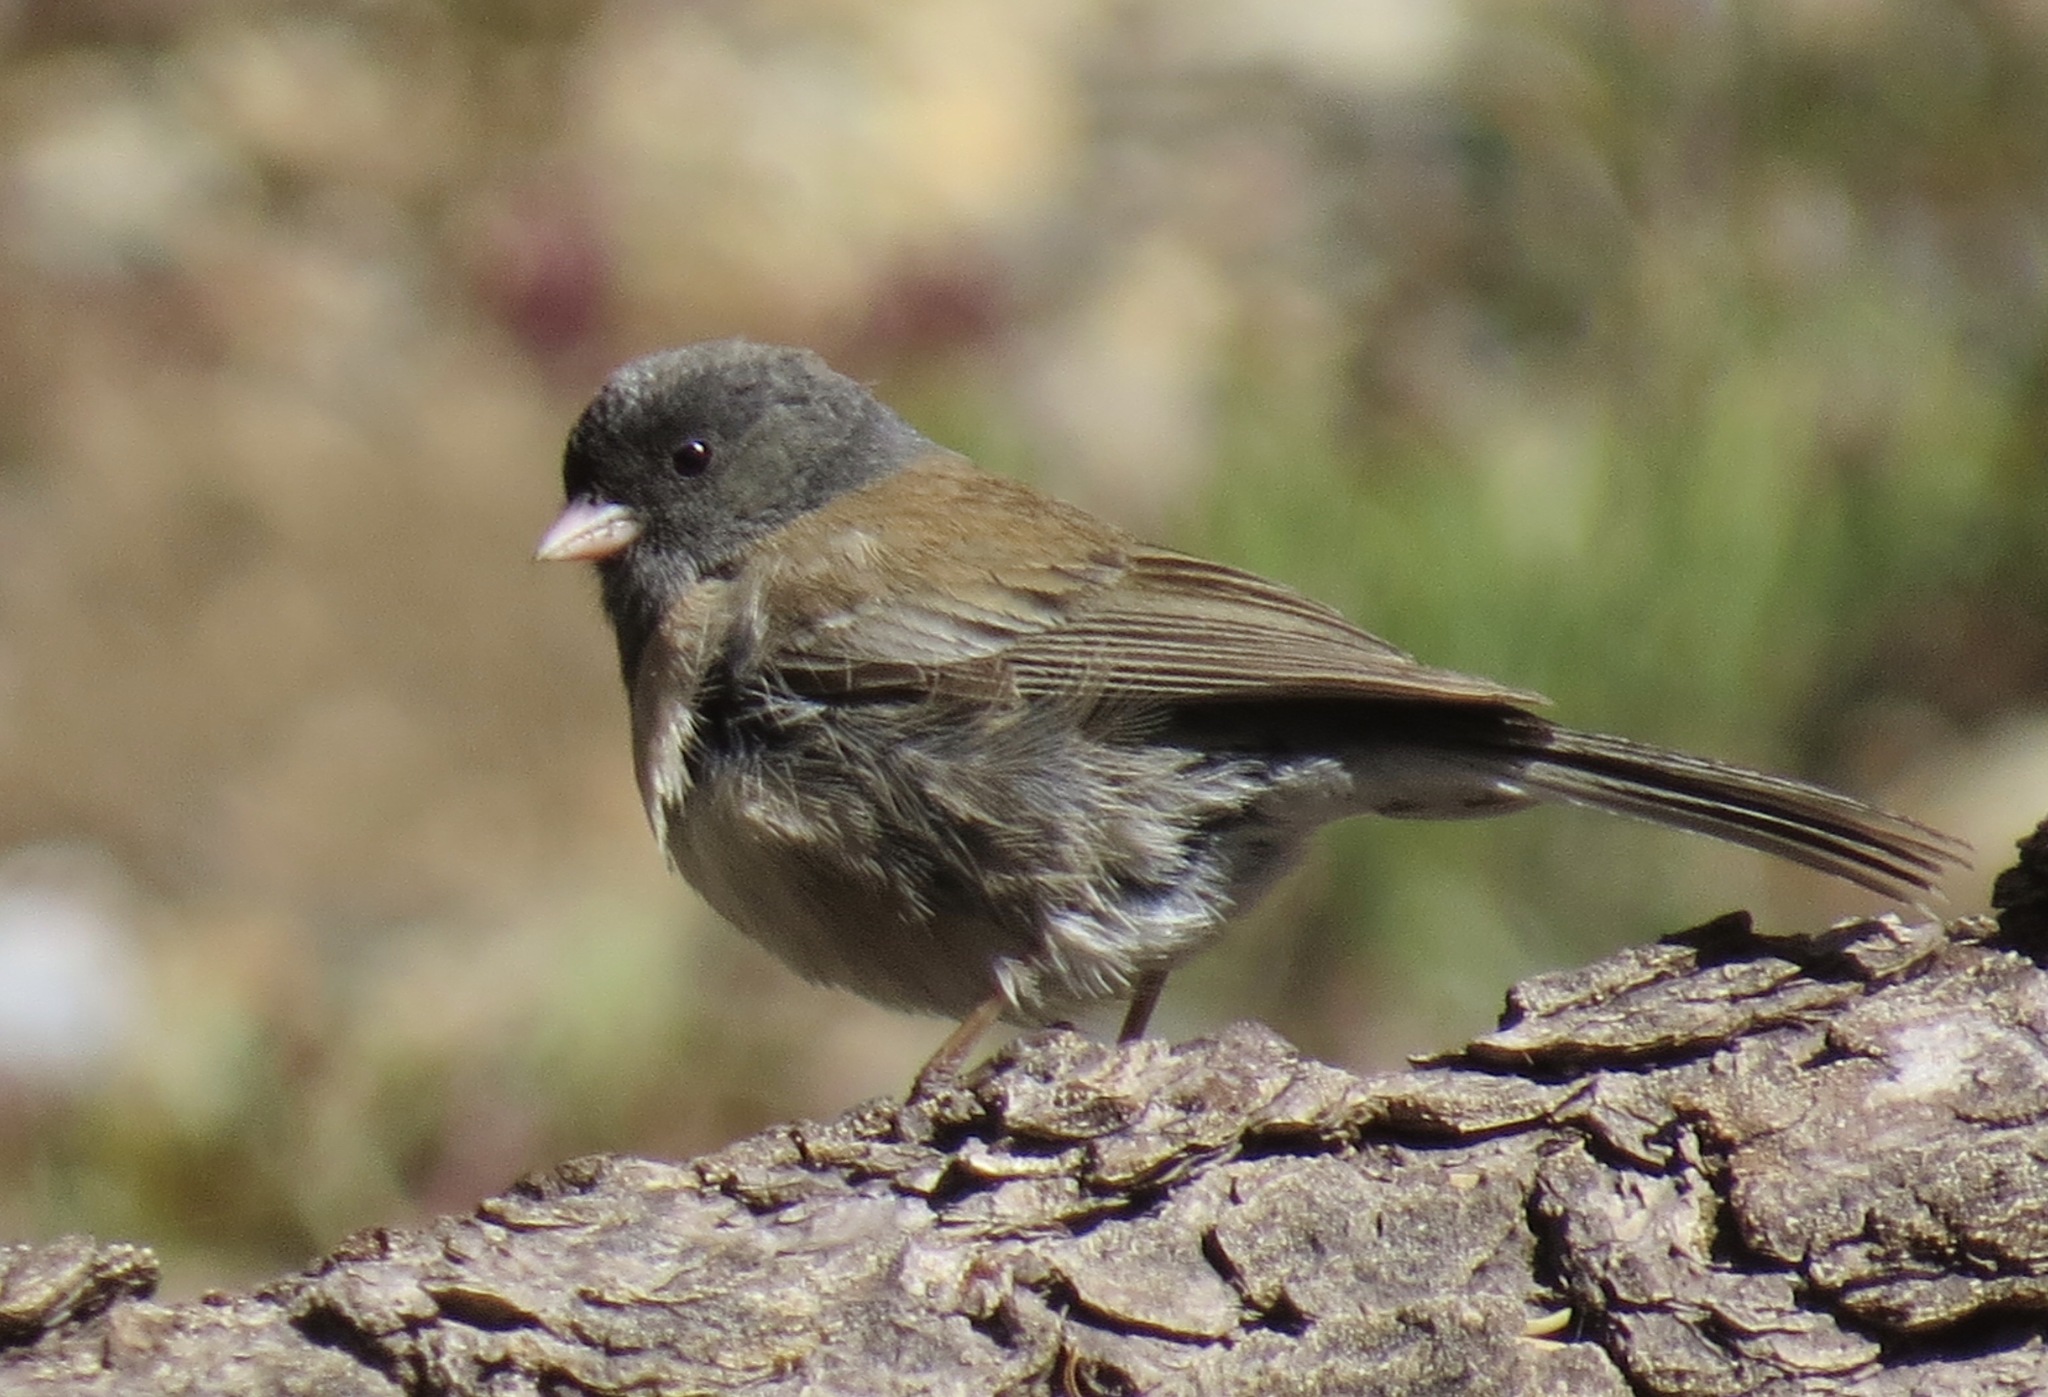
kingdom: Animalia
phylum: Chordata
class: Aves
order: Passeriformes
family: Passerellidae
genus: Junco
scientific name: Junco hyemalis
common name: Dark-eyed junco
